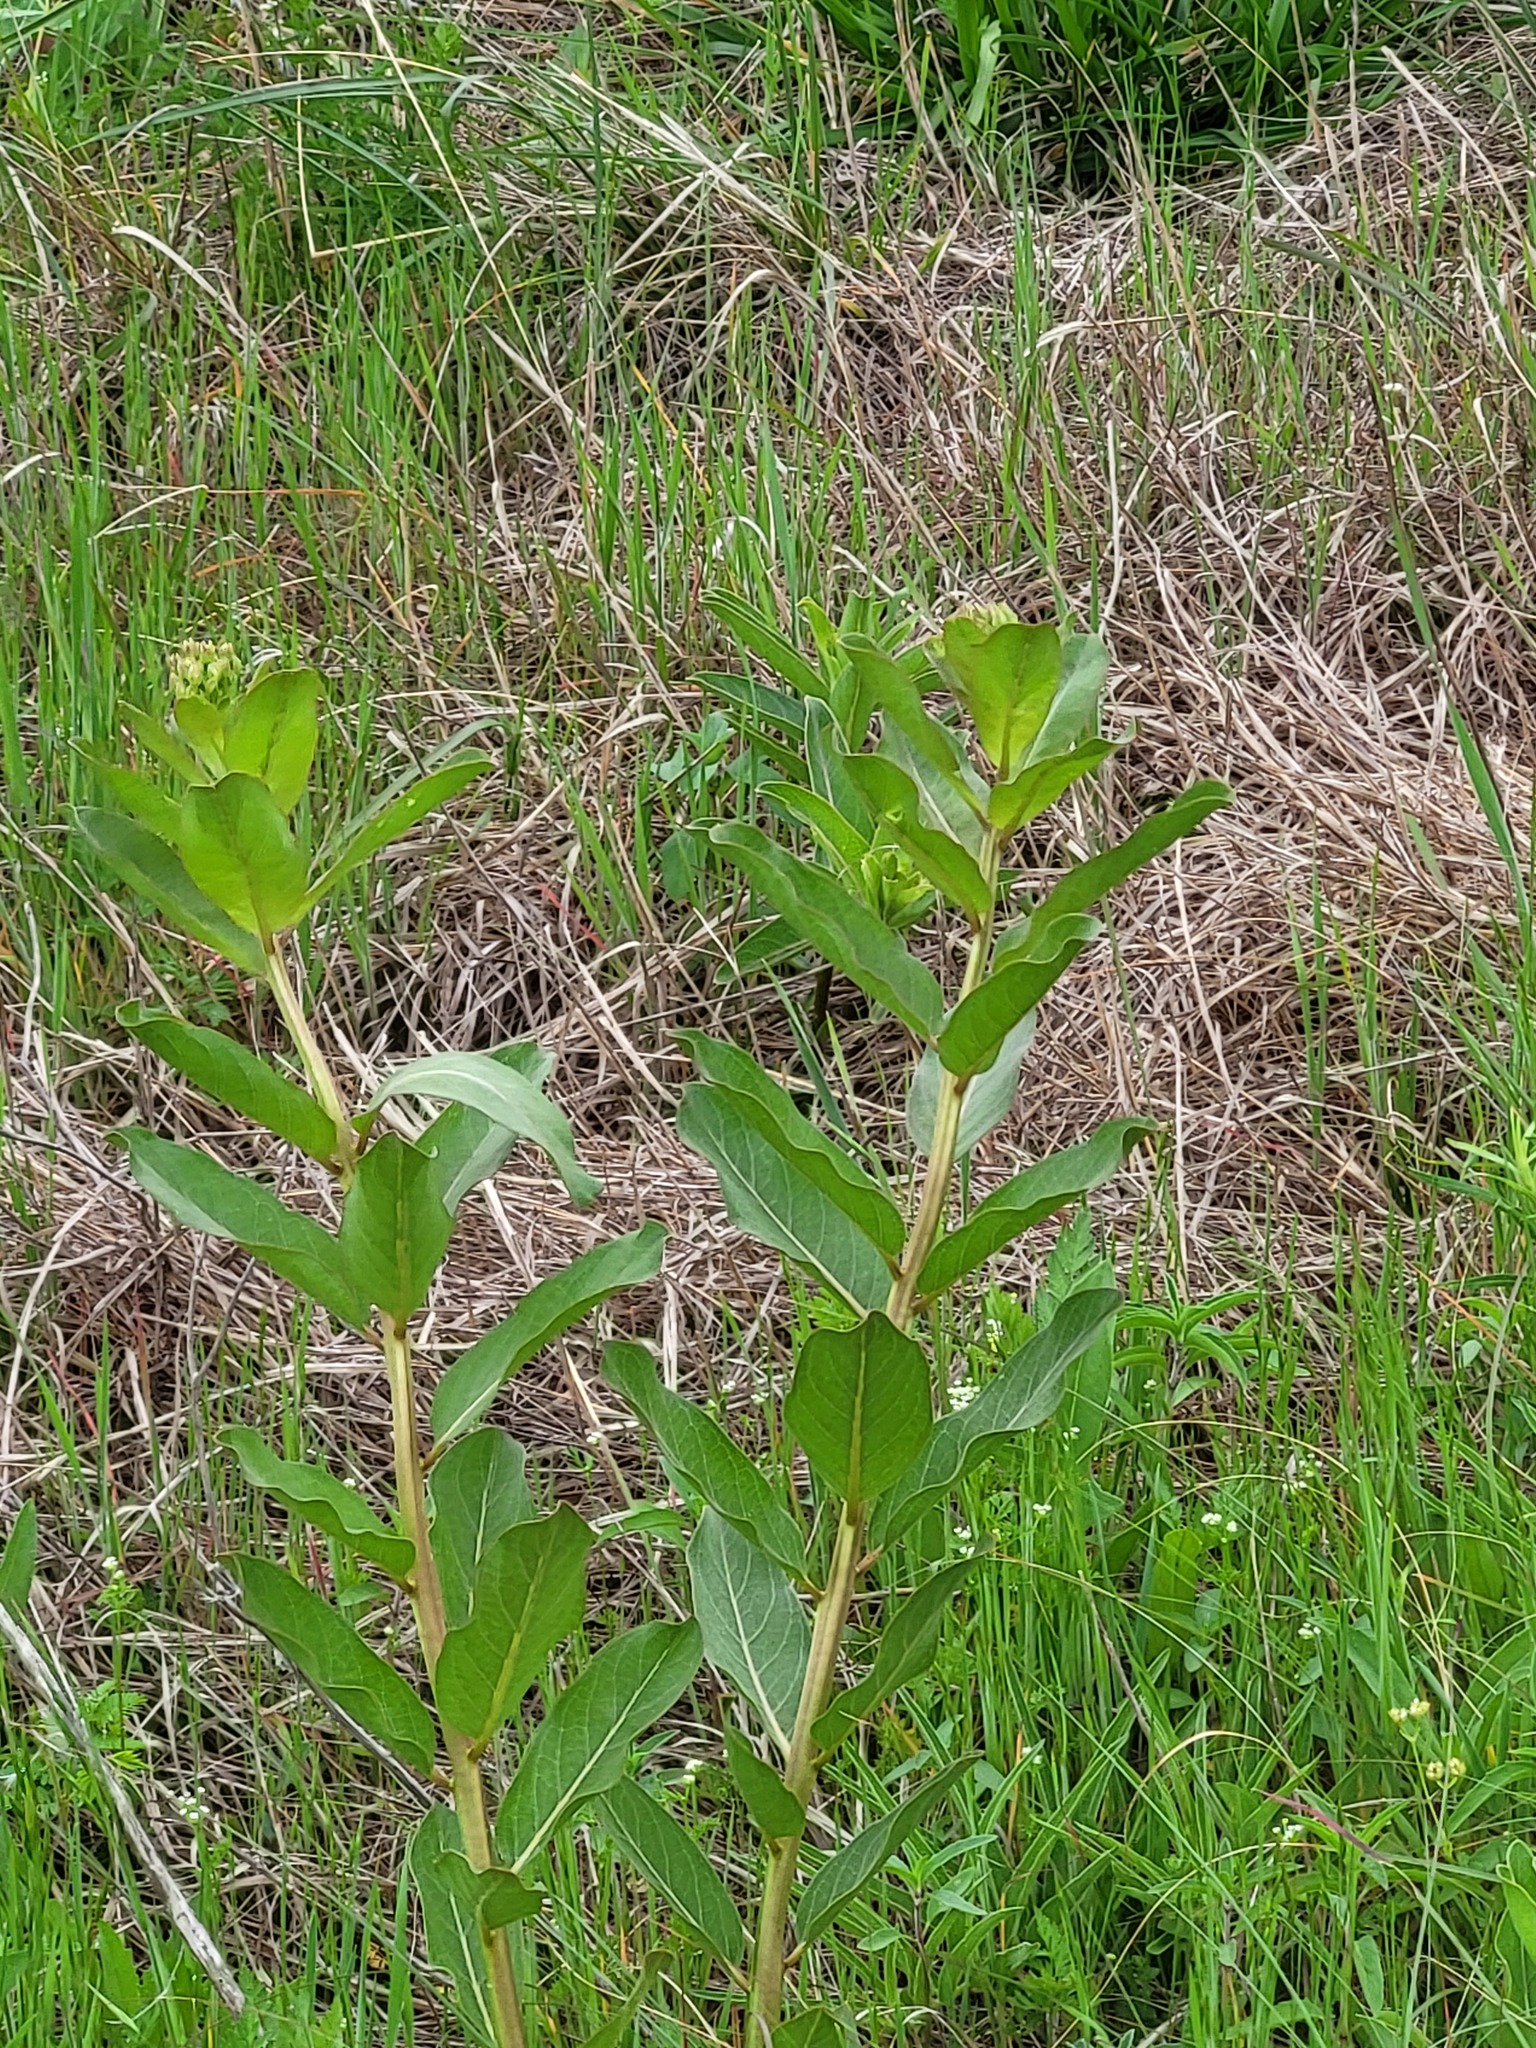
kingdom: Plantae
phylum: Tracheophyta
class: Magnoliopsida
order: Gentianales
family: Apocynaceae
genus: Asclepias
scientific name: Asclepias viridis
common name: Antelope-horns
